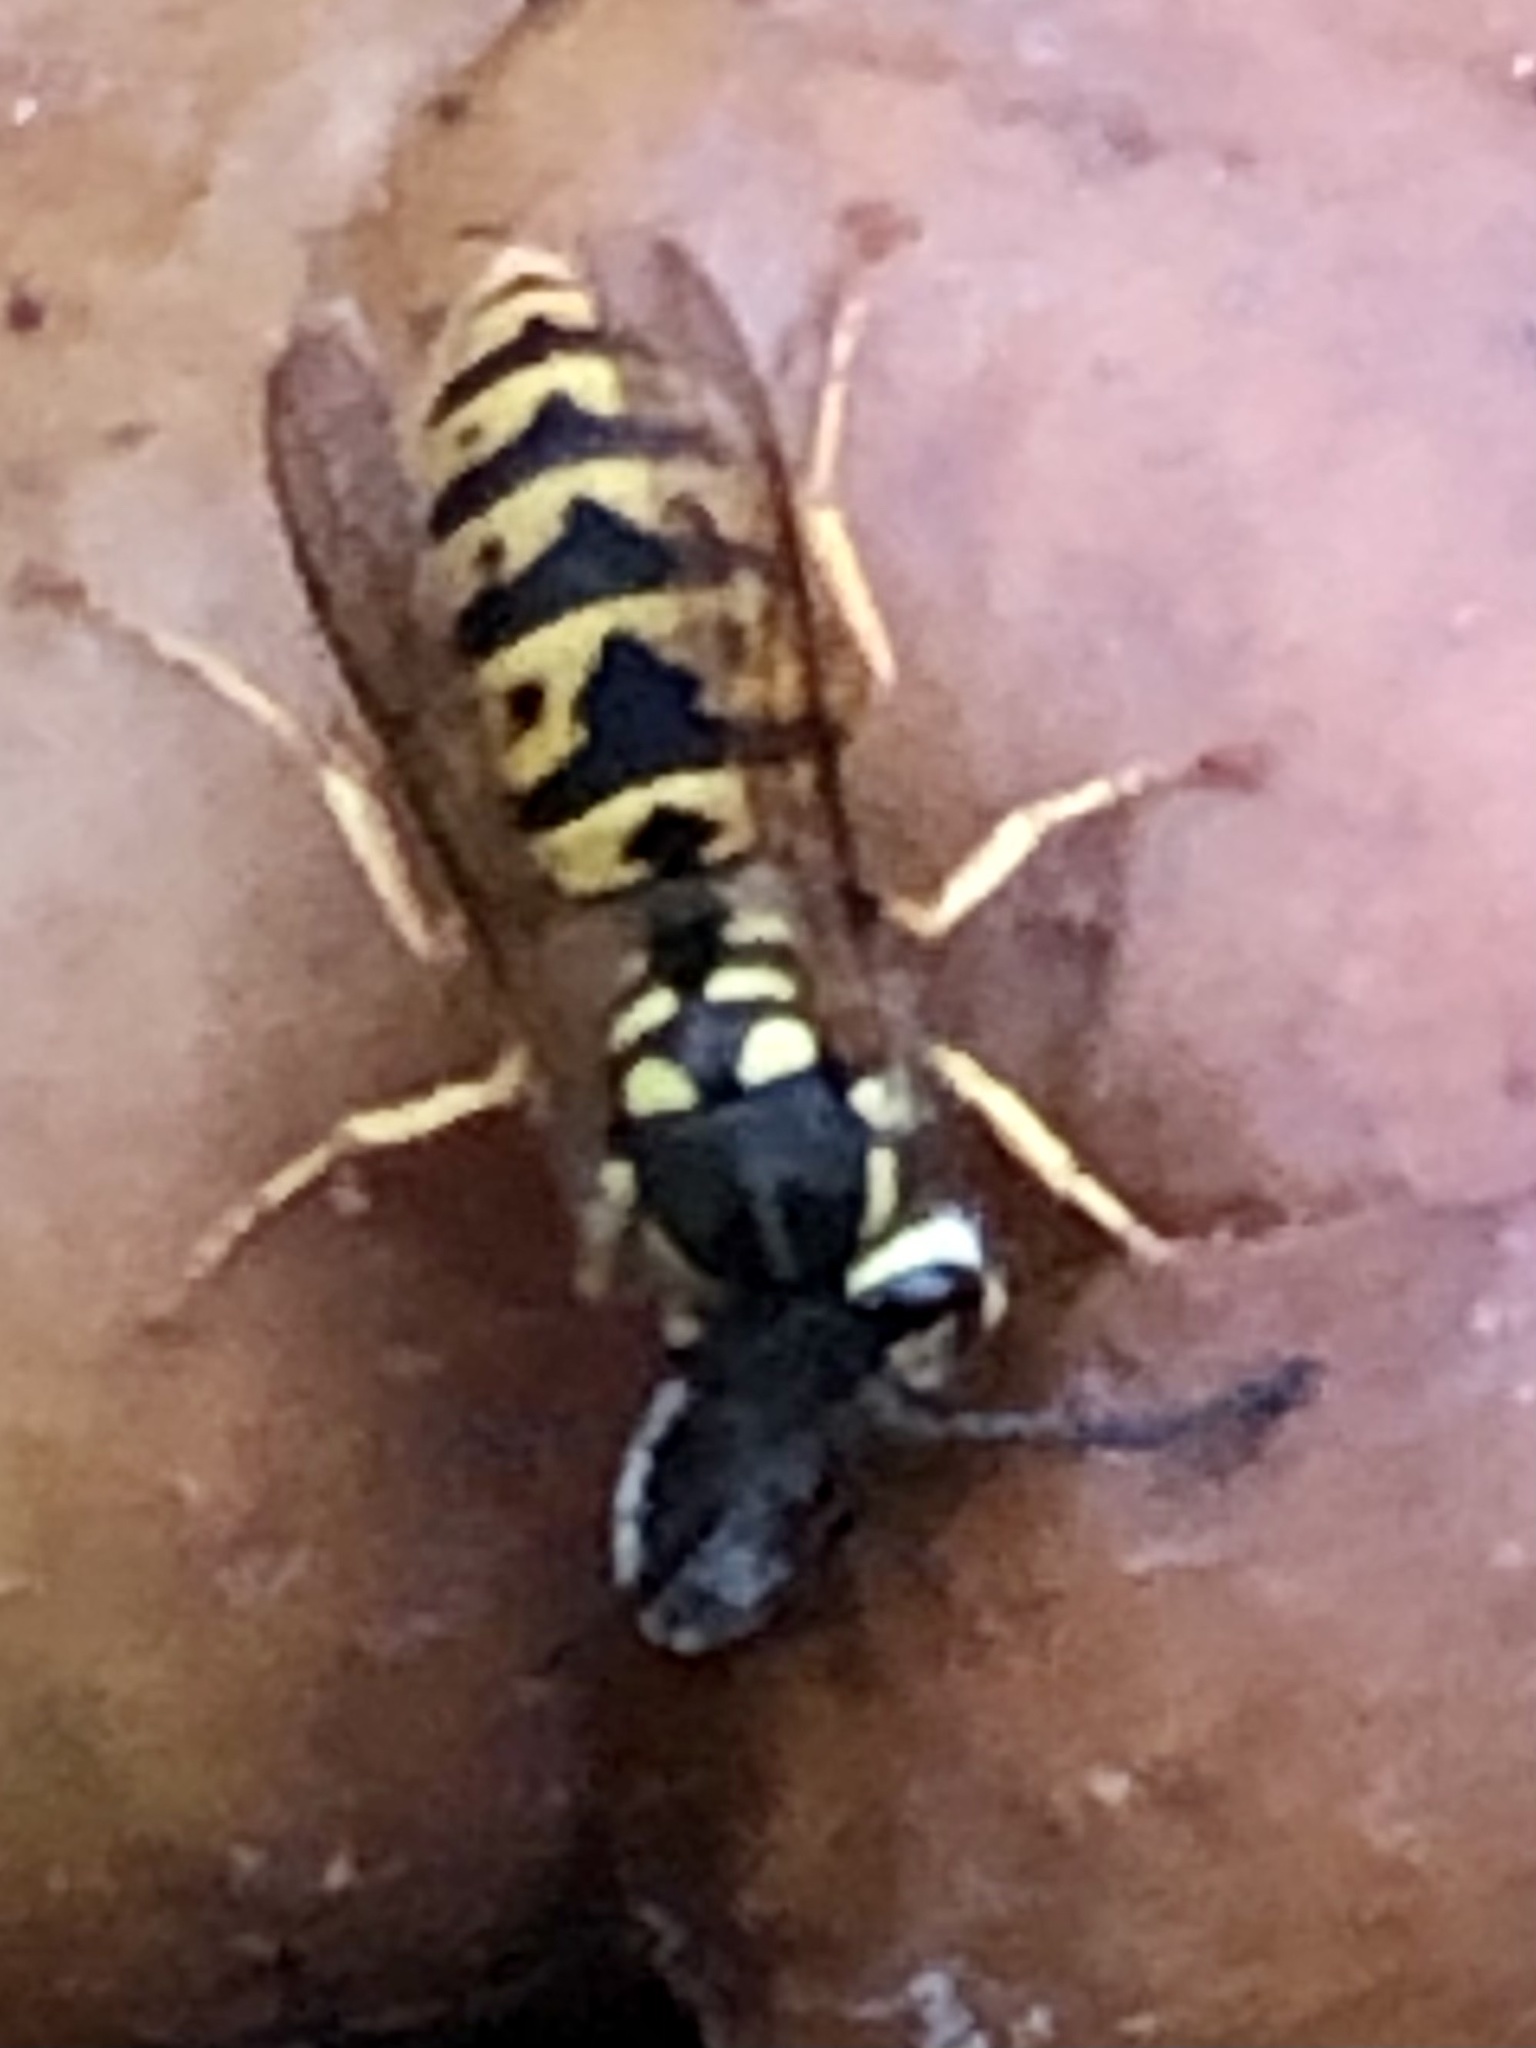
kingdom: Animalia
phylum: Arthropoda
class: Insecta
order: Hymenoptera
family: Vespidae
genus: Vespula
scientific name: Vespula germanica
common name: German wasp
